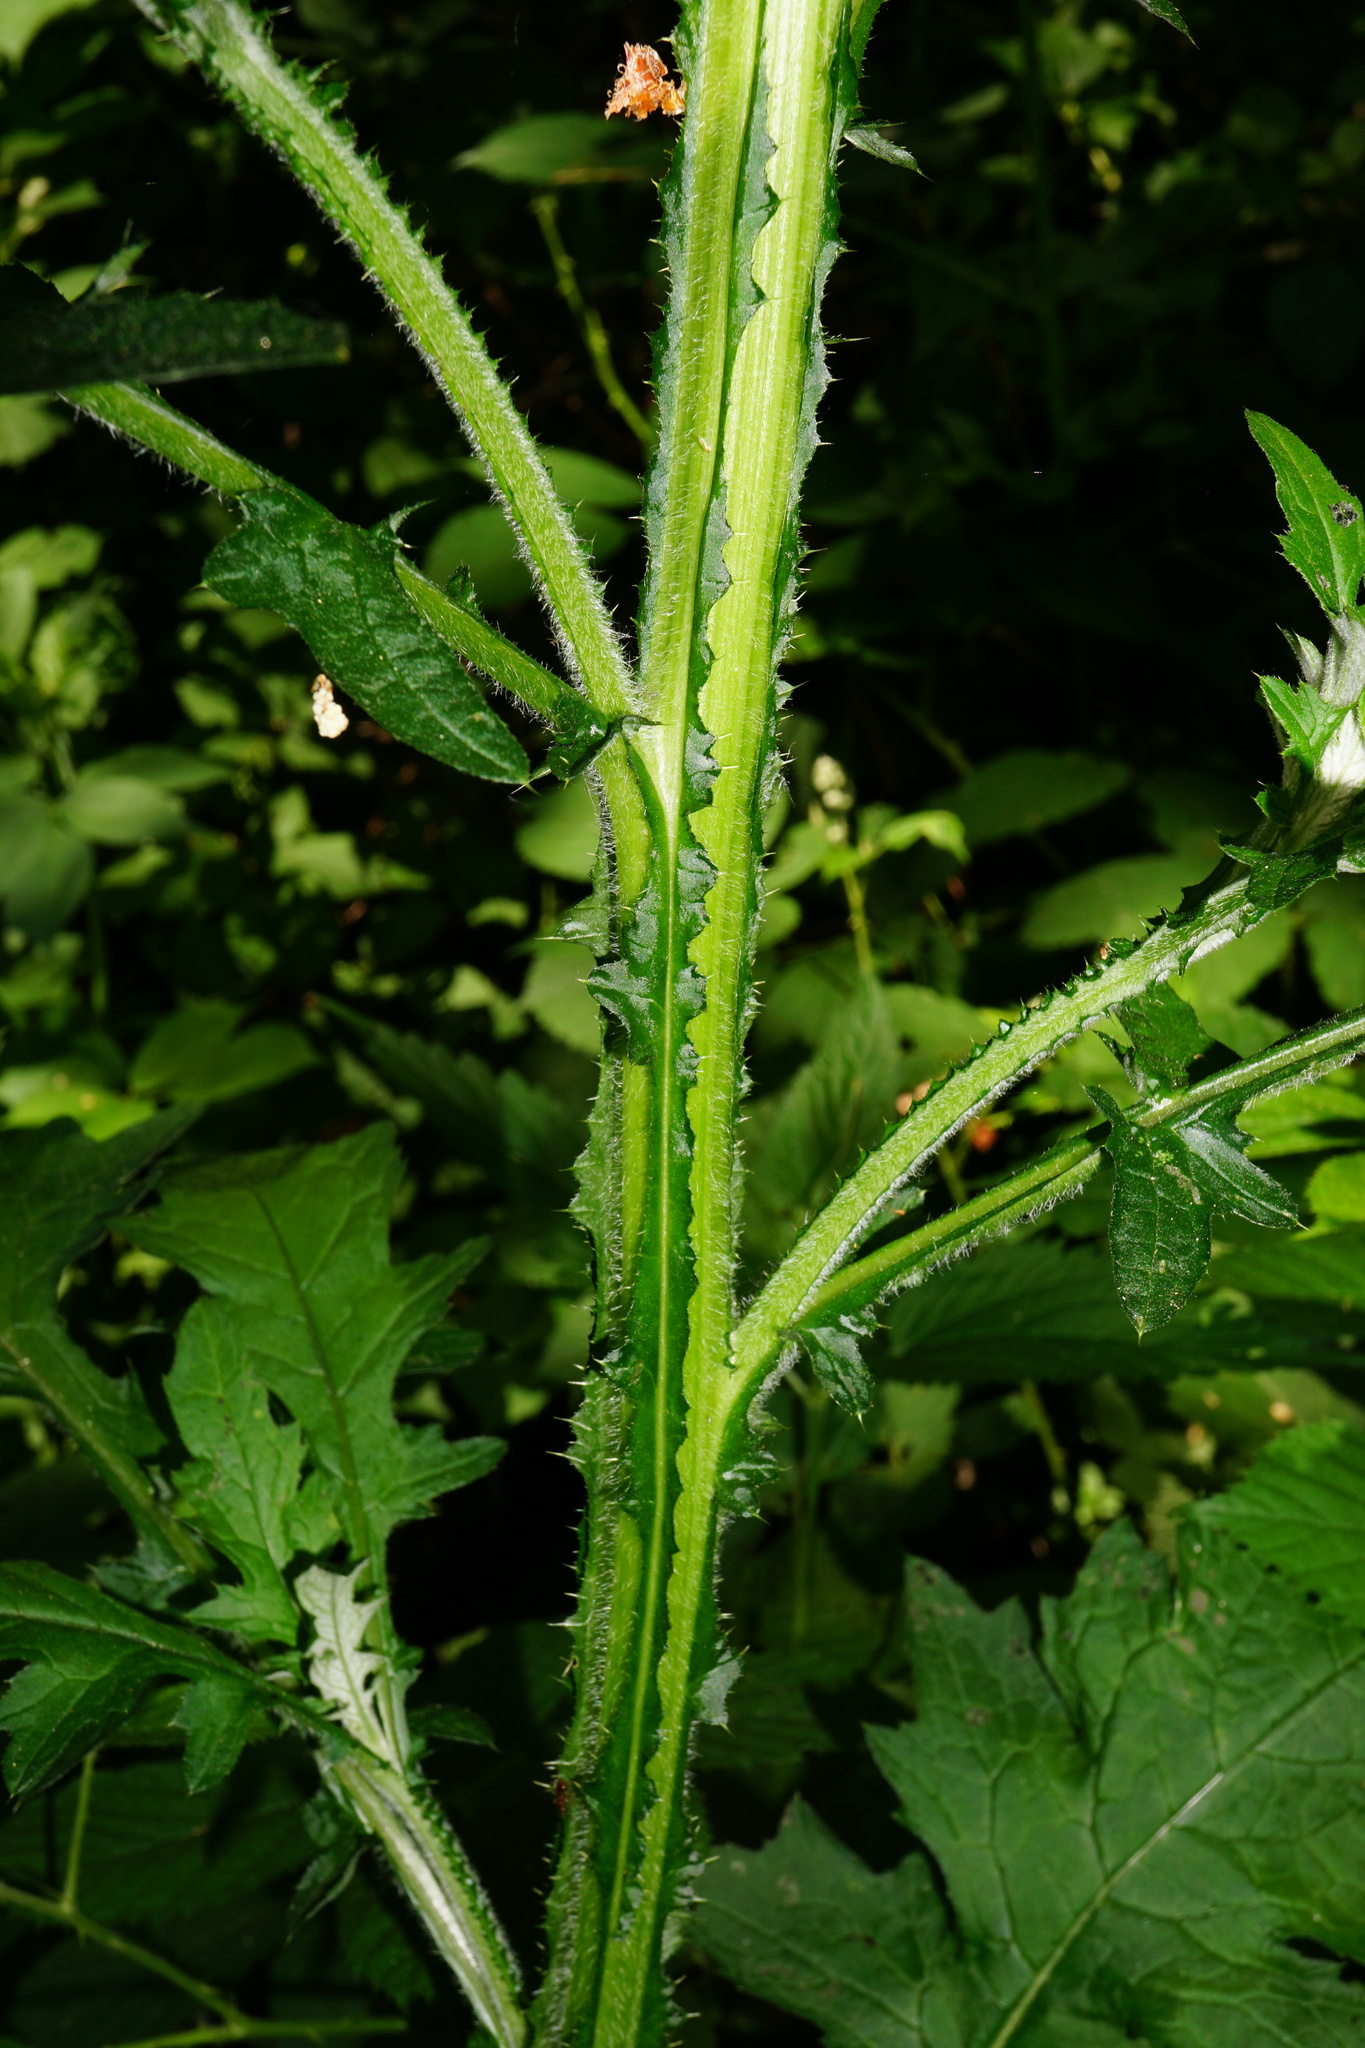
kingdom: Plantae
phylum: Tracheophyta
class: Magnoliopsida
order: Asterales
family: Asteraceae
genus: Carduus
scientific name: Carduus crispus
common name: Welted thistle
